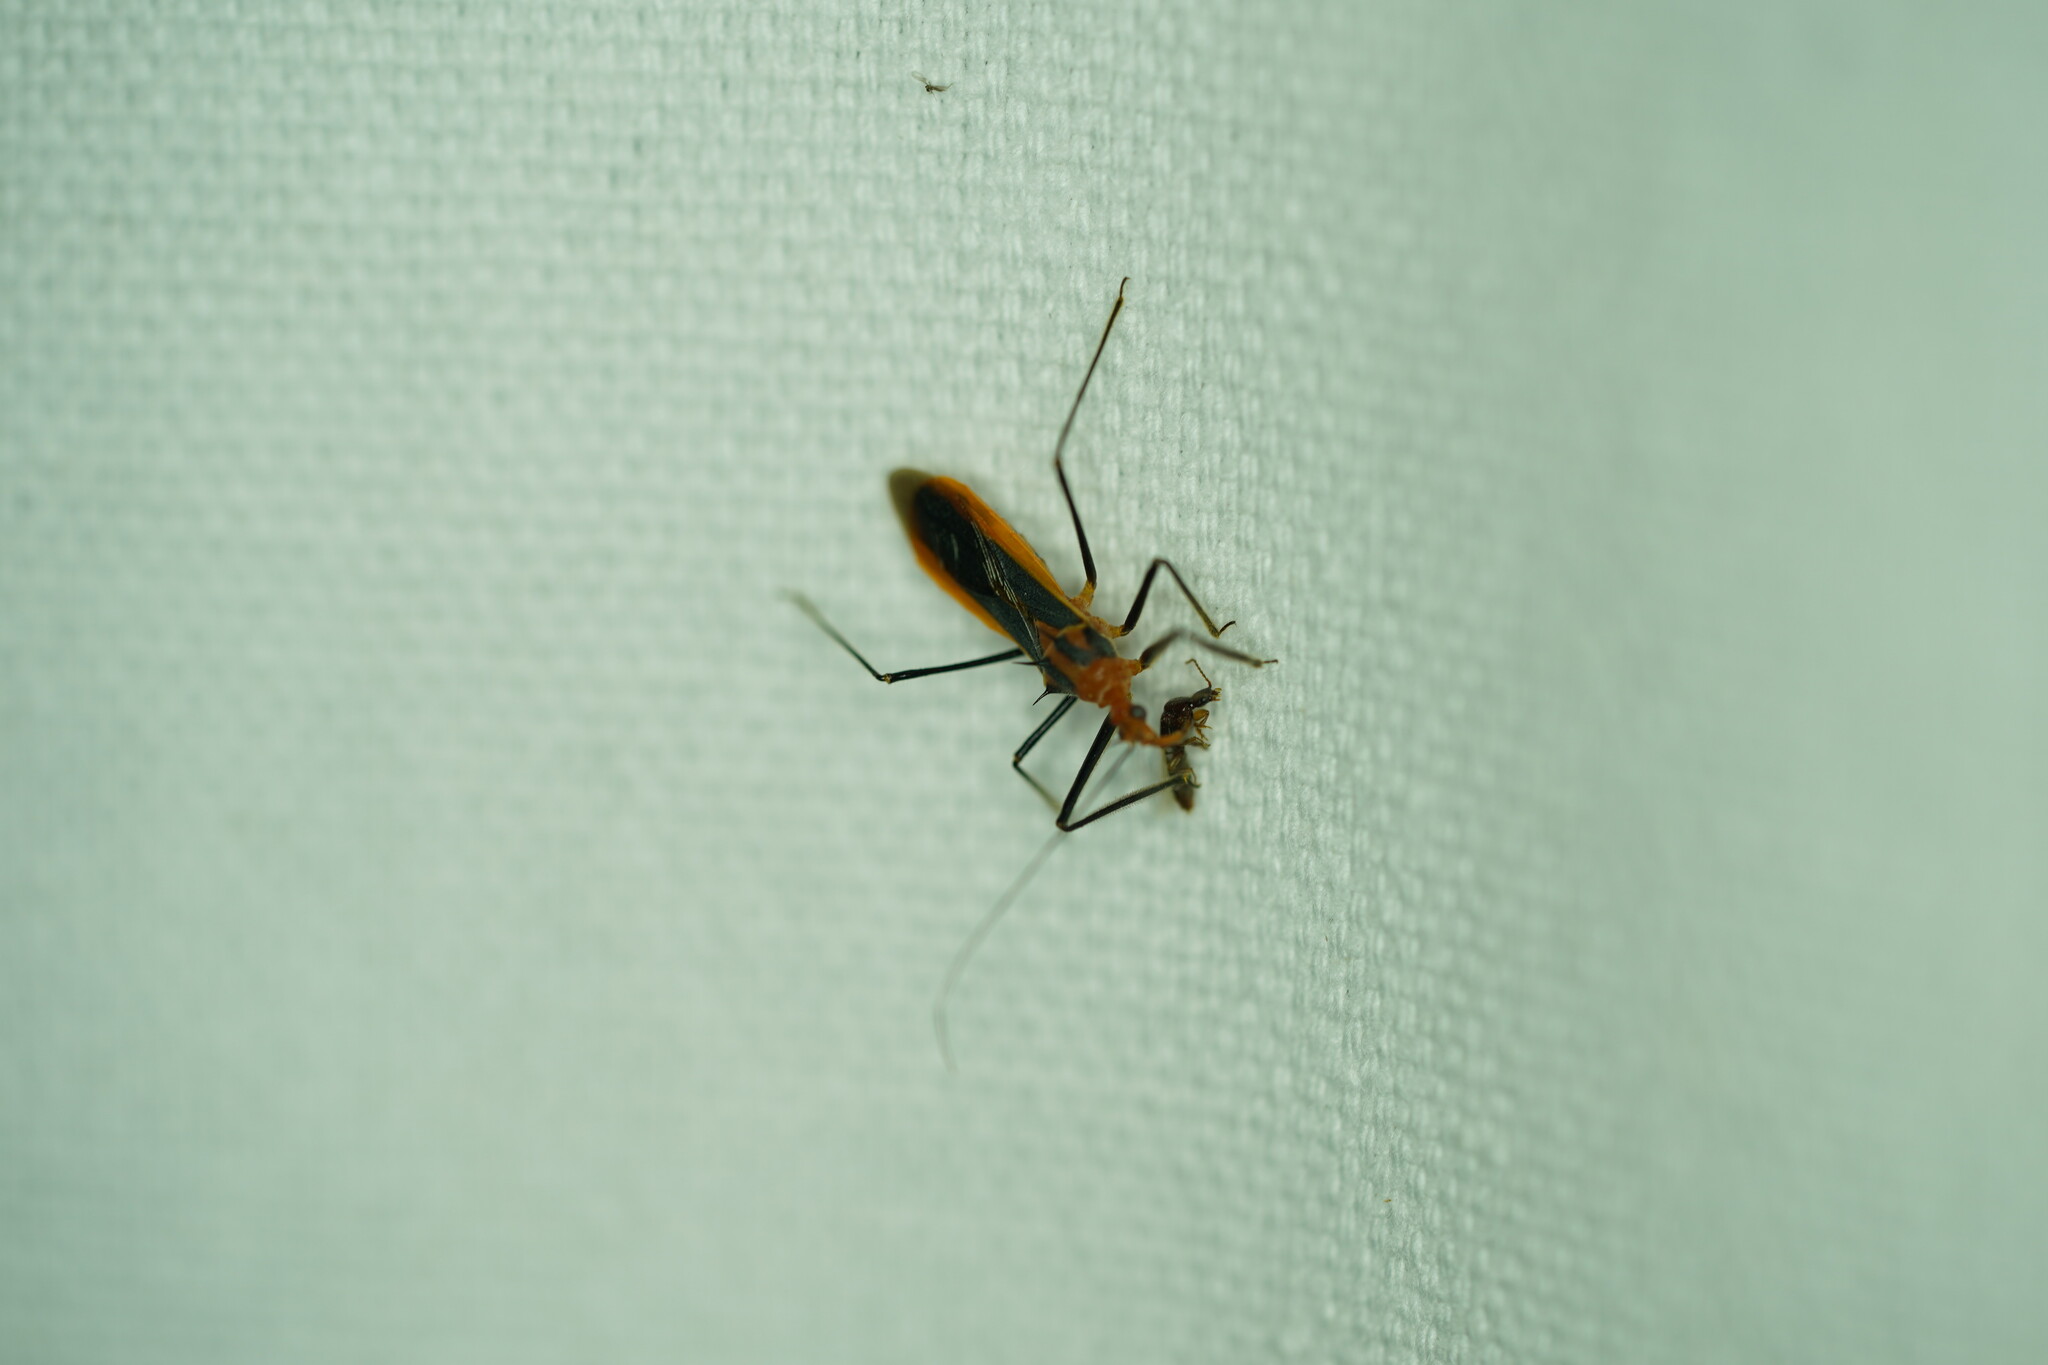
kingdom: Animalia
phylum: Arthropoda
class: Insecta
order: Hemiptera
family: Reduviidae
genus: Repipta
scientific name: Repipta taurus
